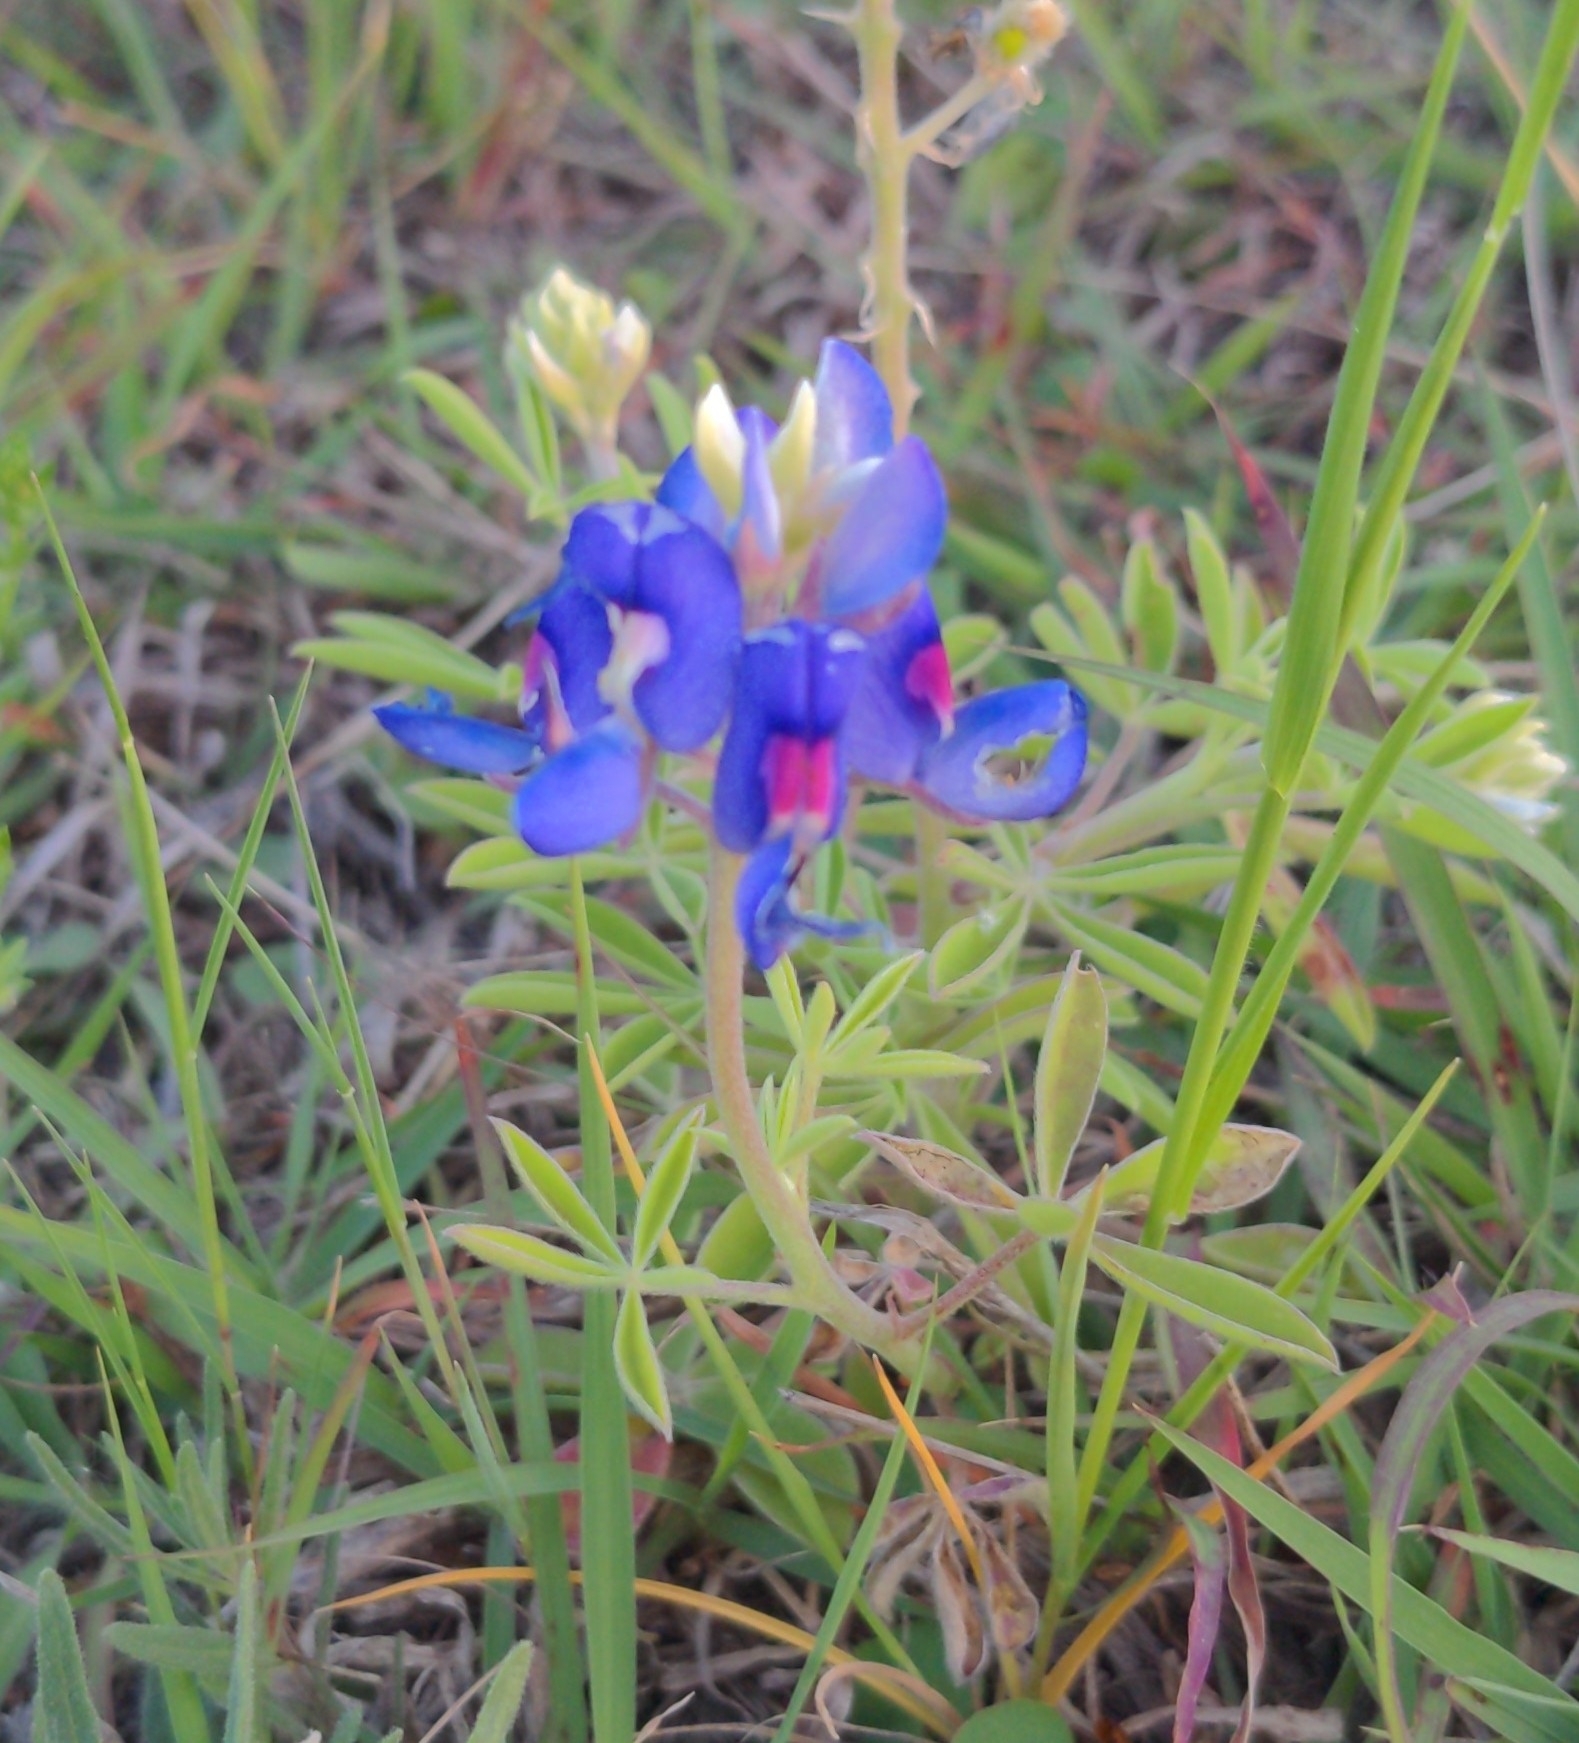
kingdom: Plantae
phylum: Tracheophyta
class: Magnoliopsida
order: Fabales
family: Fabaceae
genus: Lupinus
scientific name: Lupinus texensis
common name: Texas bluebonnet
